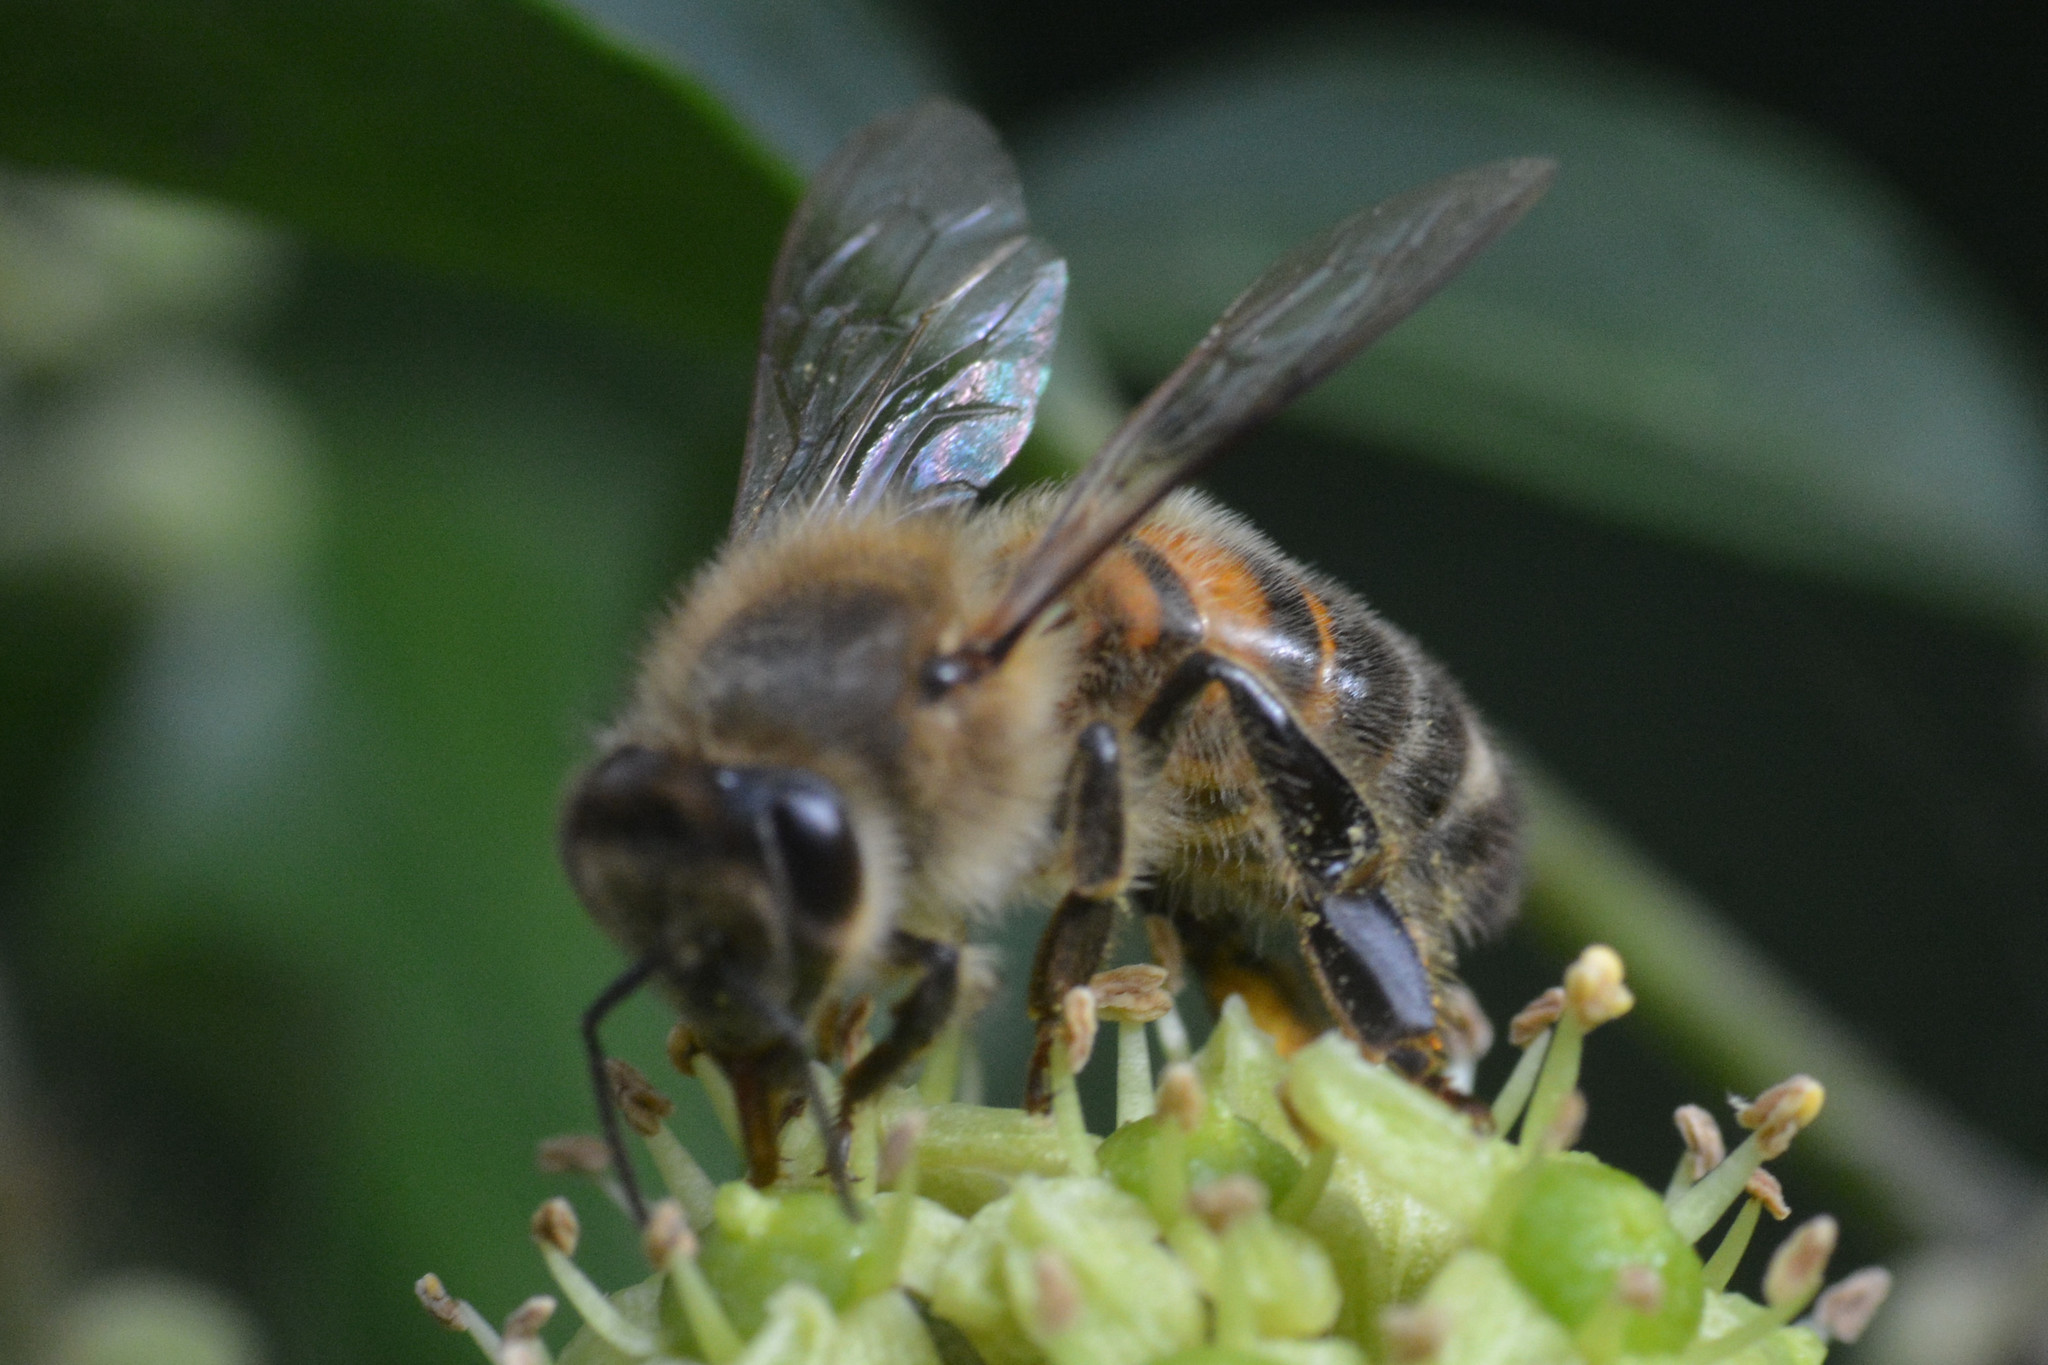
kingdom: Animalia
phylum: Arthropoda
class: Insecta
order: Hymenoptera
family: Apidae
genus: Apis
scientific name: Apis mellifera
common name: Honey bee
